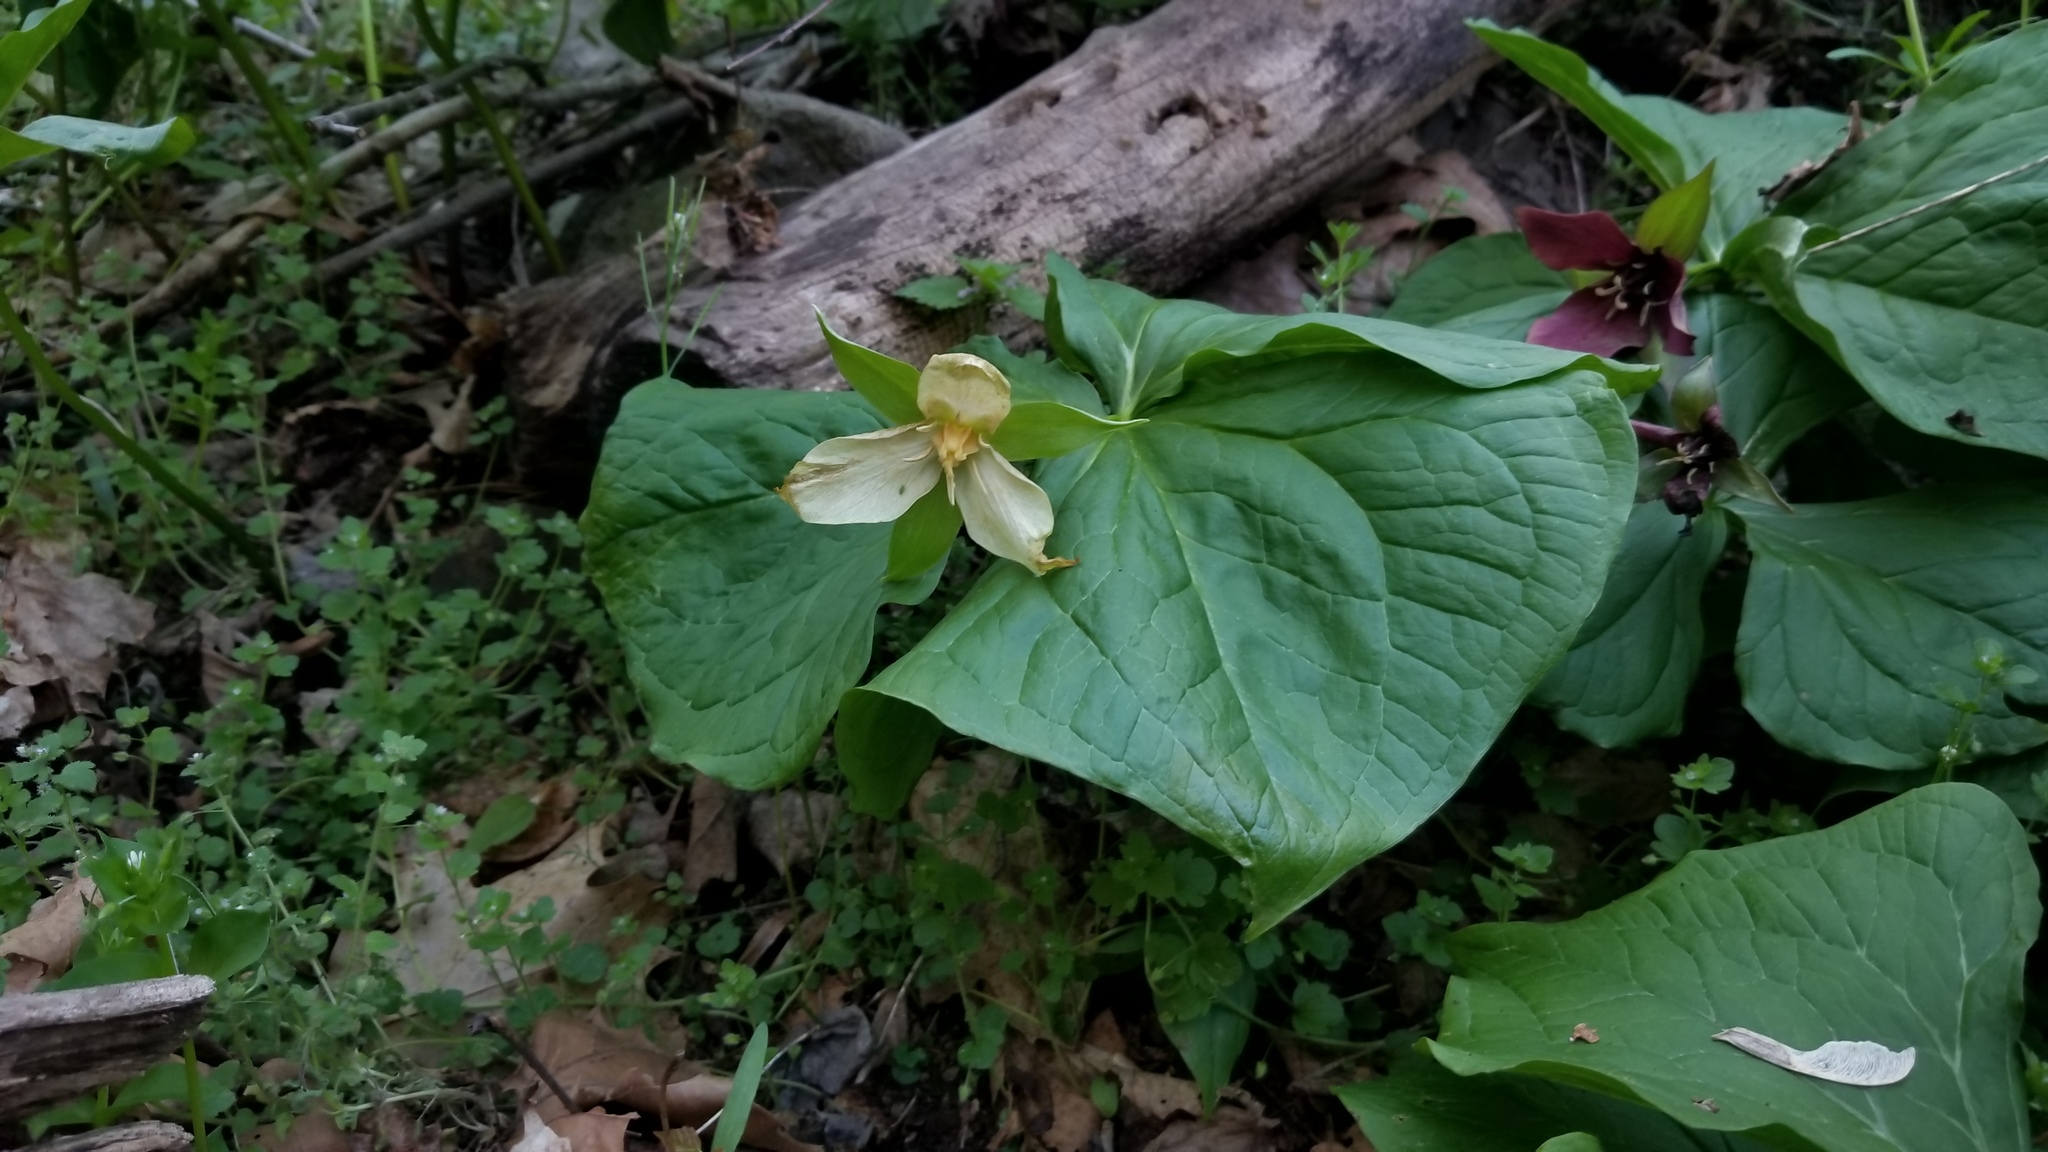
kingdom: Plantae
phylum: Tracheophyta
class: Liliopsida
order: Liliales
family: Melanthiaceae
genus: Trillium
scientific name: Trillium erectum
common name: Purple trillium
